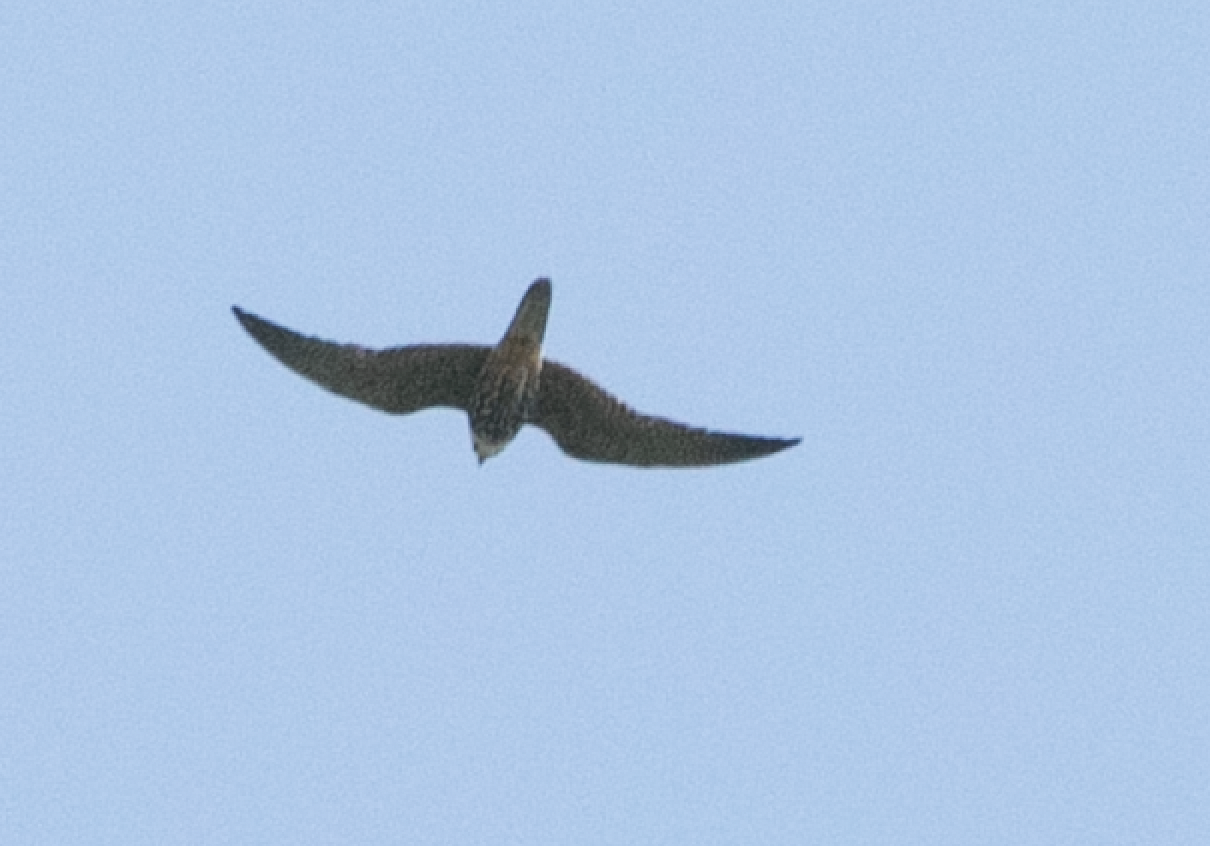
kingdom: Animalia
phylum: Chordata
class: Aves
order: Falconiformes
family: Falconidae
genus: Falco
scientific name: Falco subbuteo
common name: Eurasian hobby
